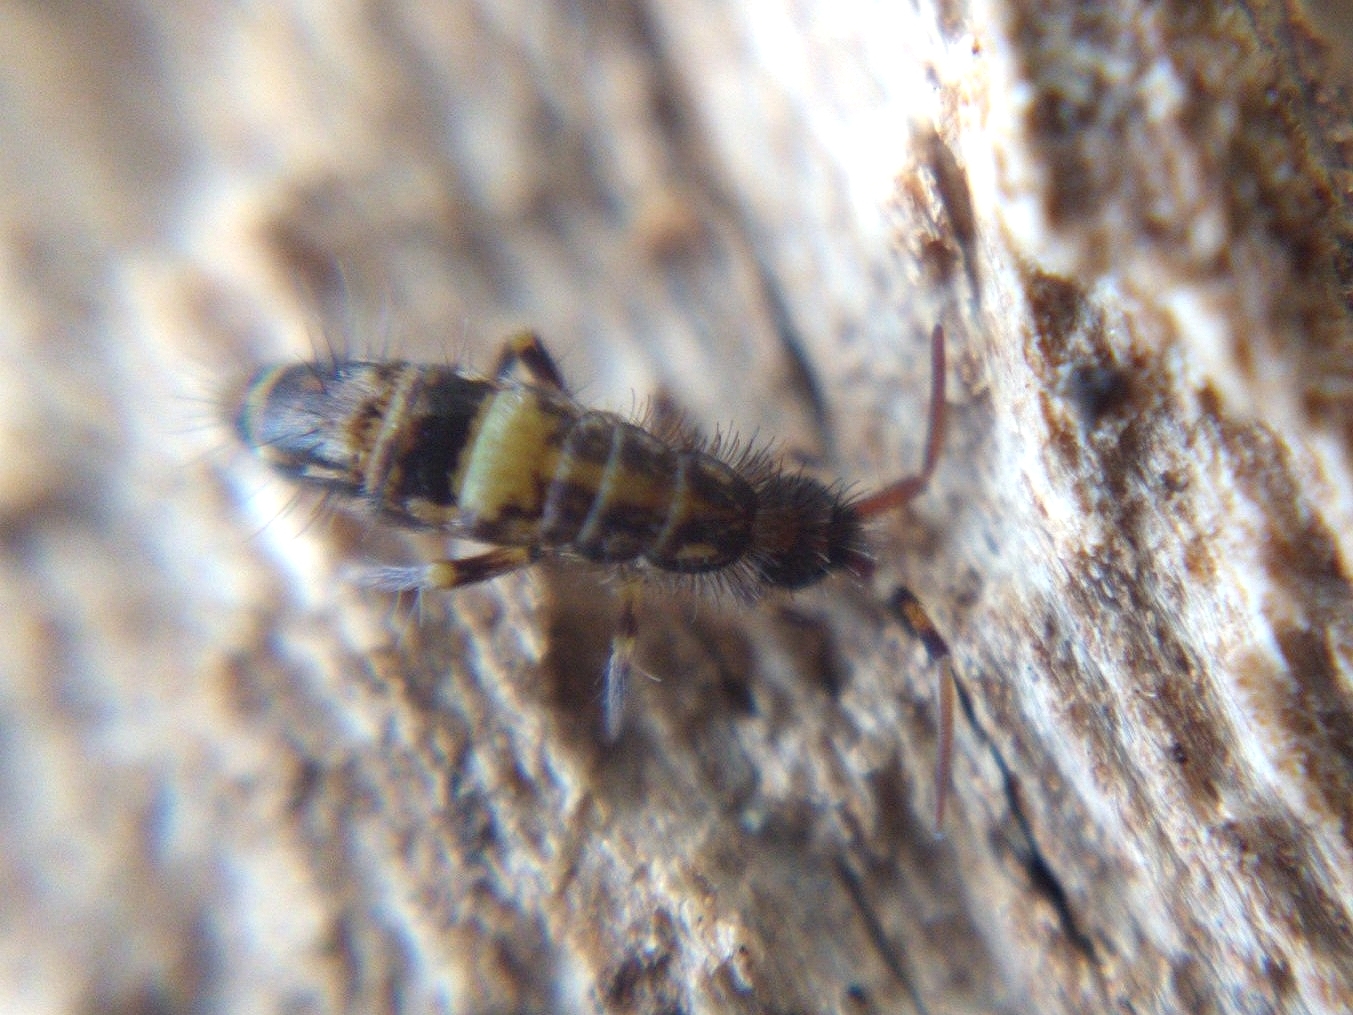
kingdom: Animalia
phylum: Arthropoda
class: Collembola
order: Entomobryomorpha
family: Orchesellidae
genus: Orchesella
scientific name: Orchesella cincta
